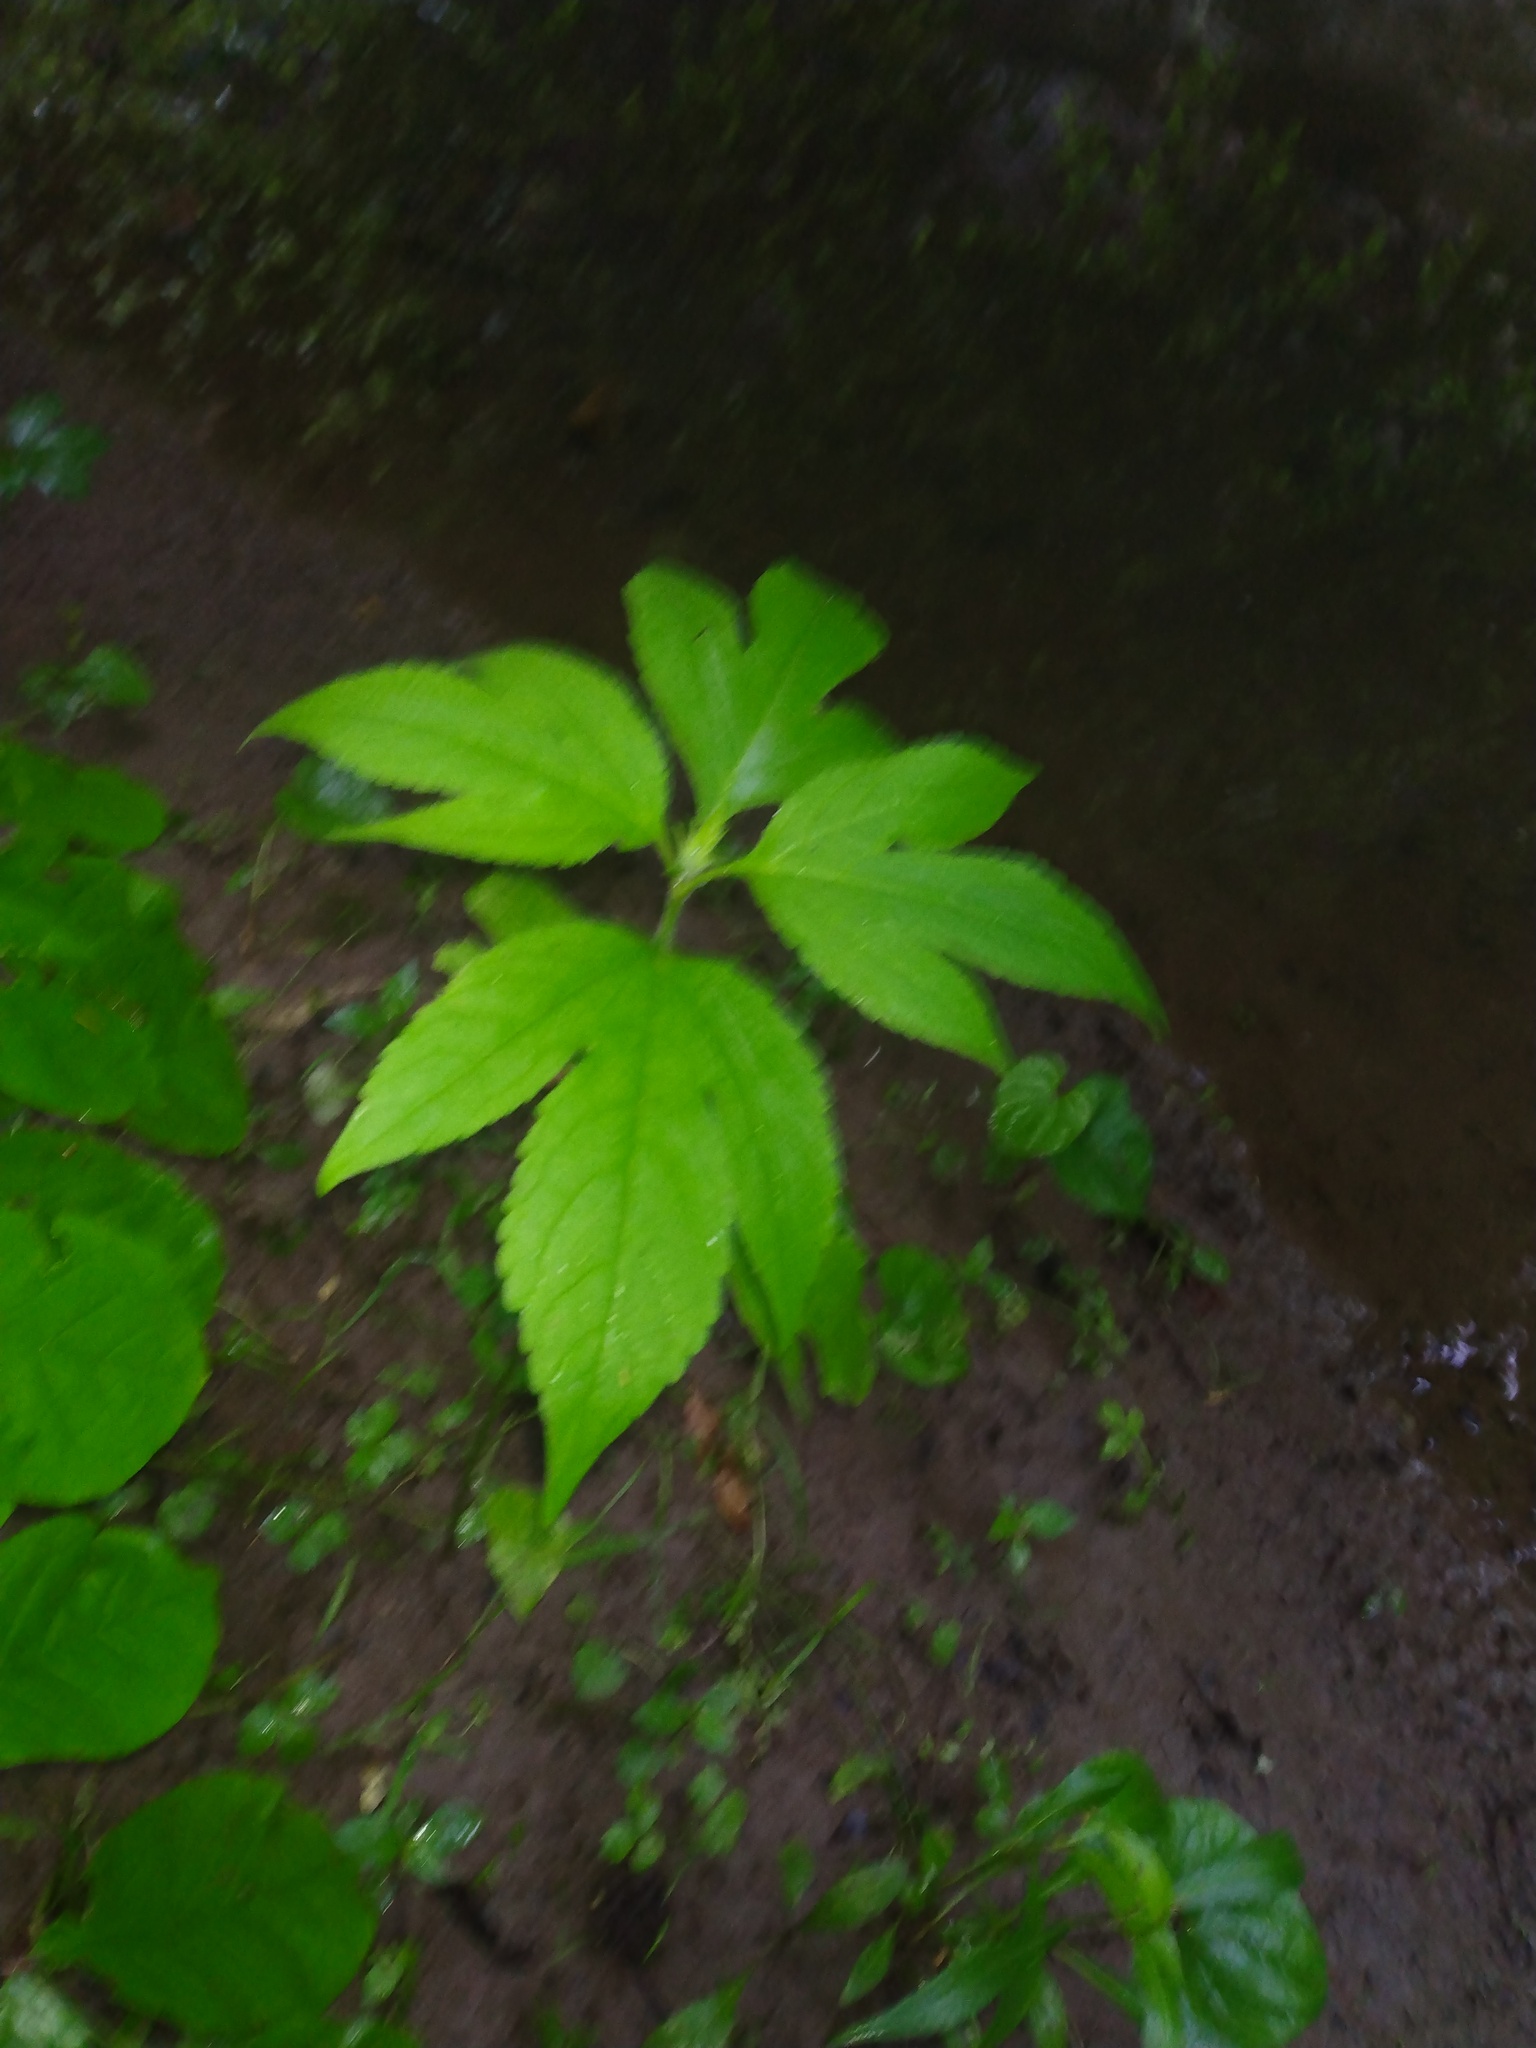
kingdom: Plantae
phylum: Tracheophyta
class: Magnoliopsida
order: Asterales
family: Asteraceae
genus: Ambrosia
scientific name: Ambrosia trifida
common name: Giant ragweed
